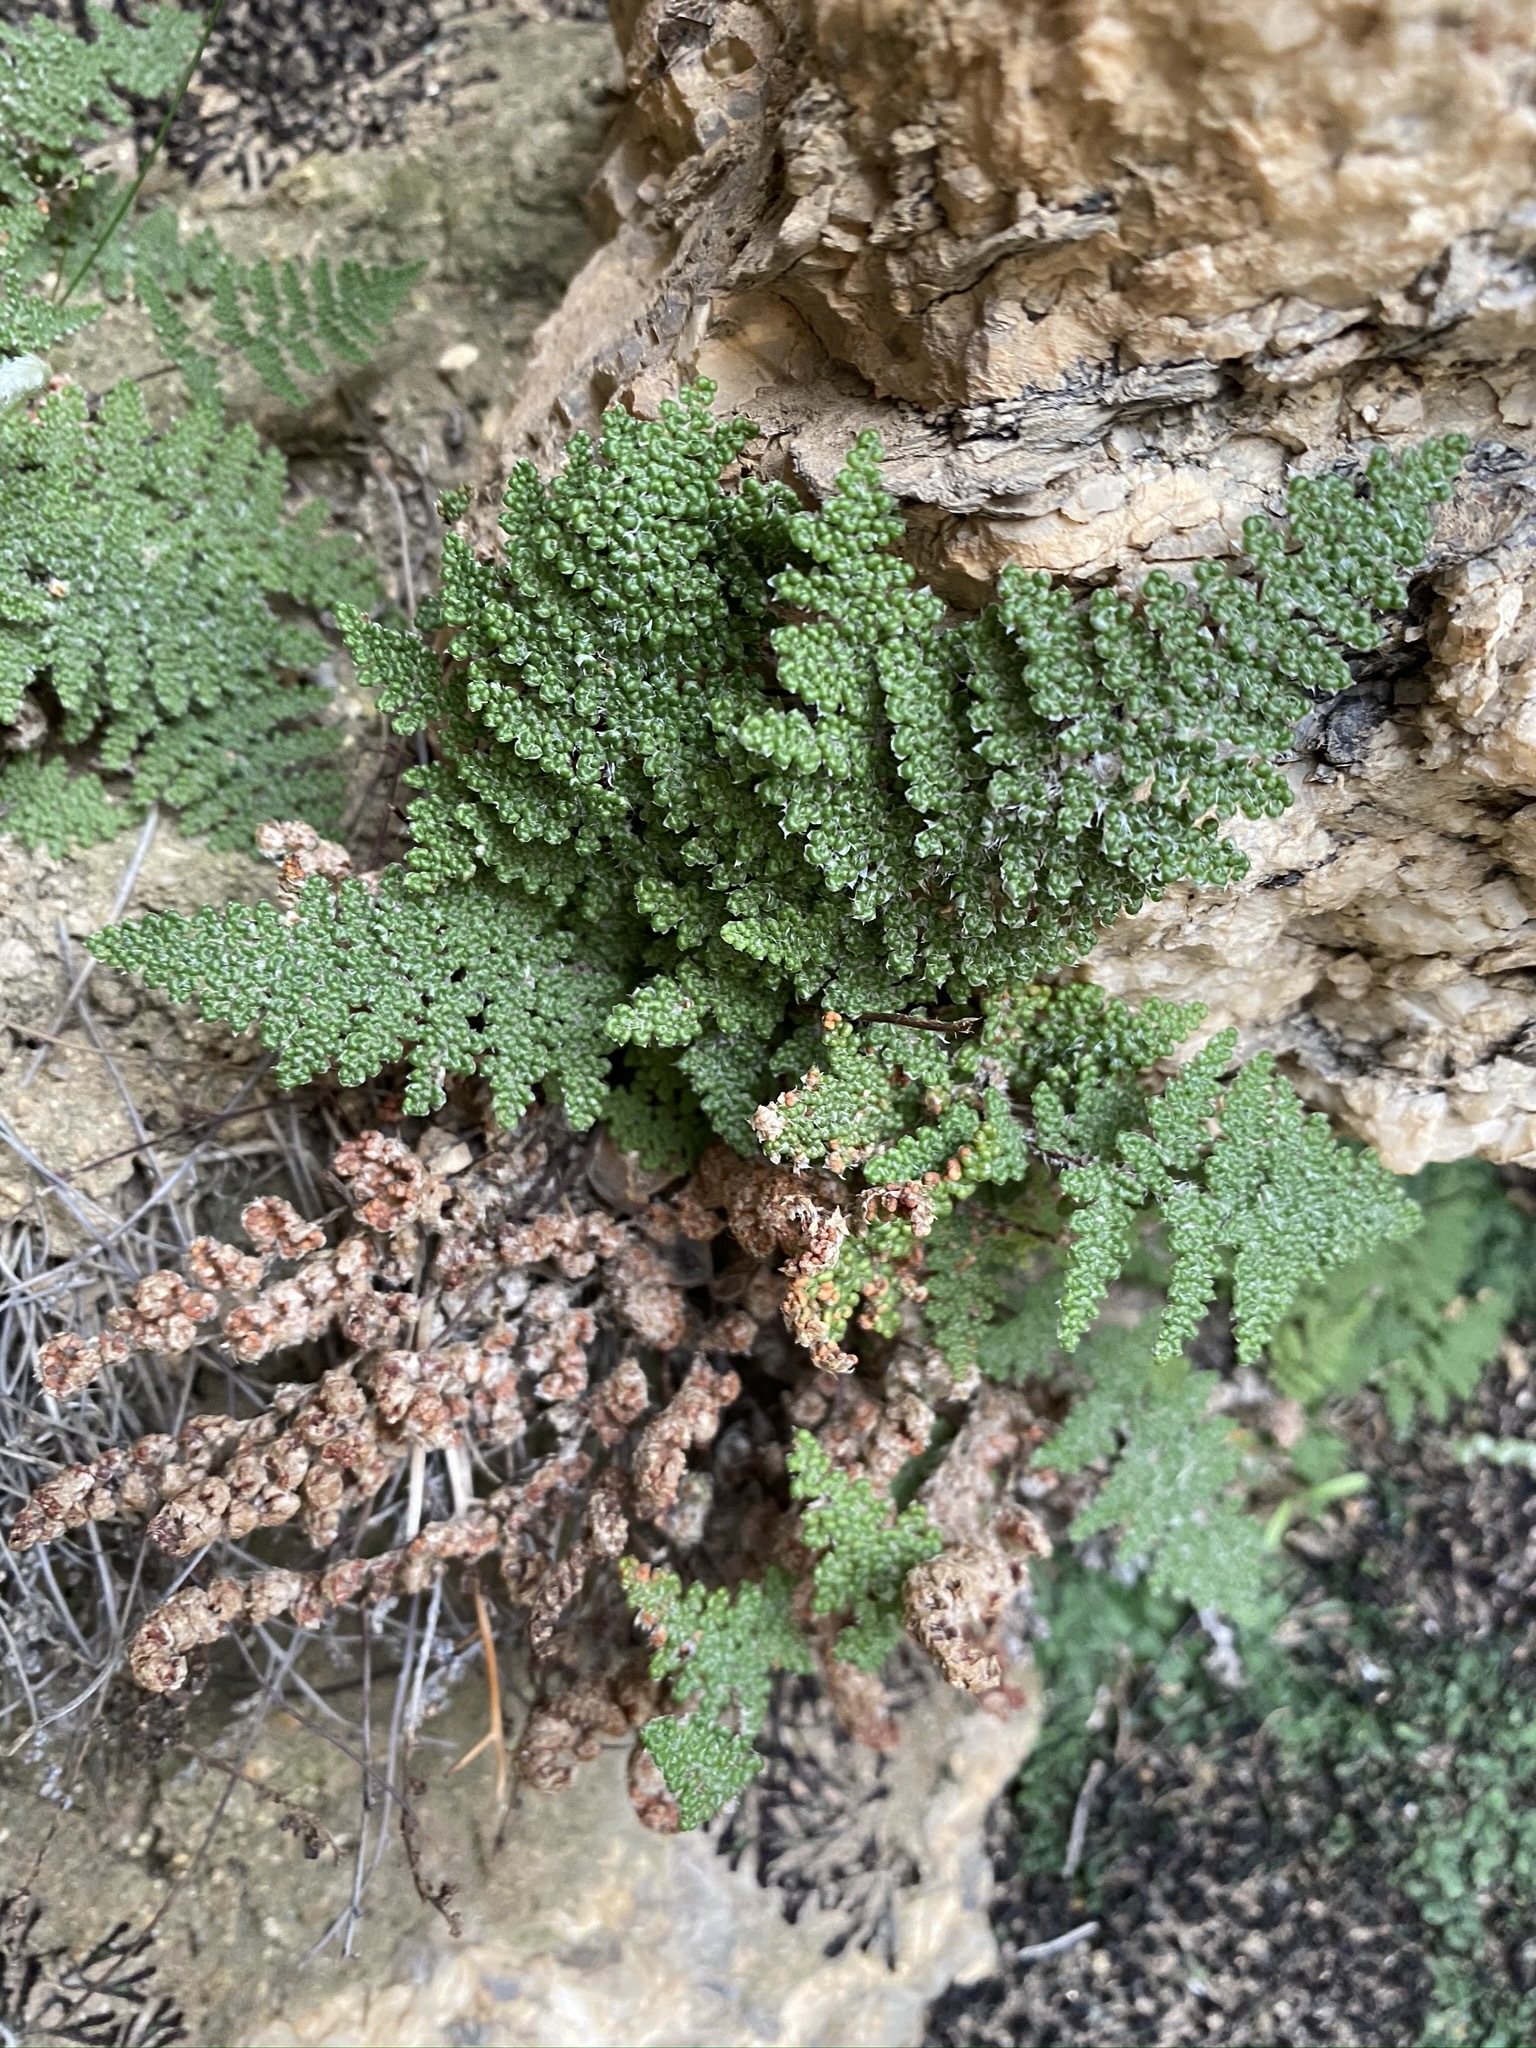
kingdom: Plantae
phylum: Tracheophyta
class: Polypodiopsida
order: Polypodiales
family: Pteridaceae
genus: Myriopteris
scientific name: Myriopteris covillei
